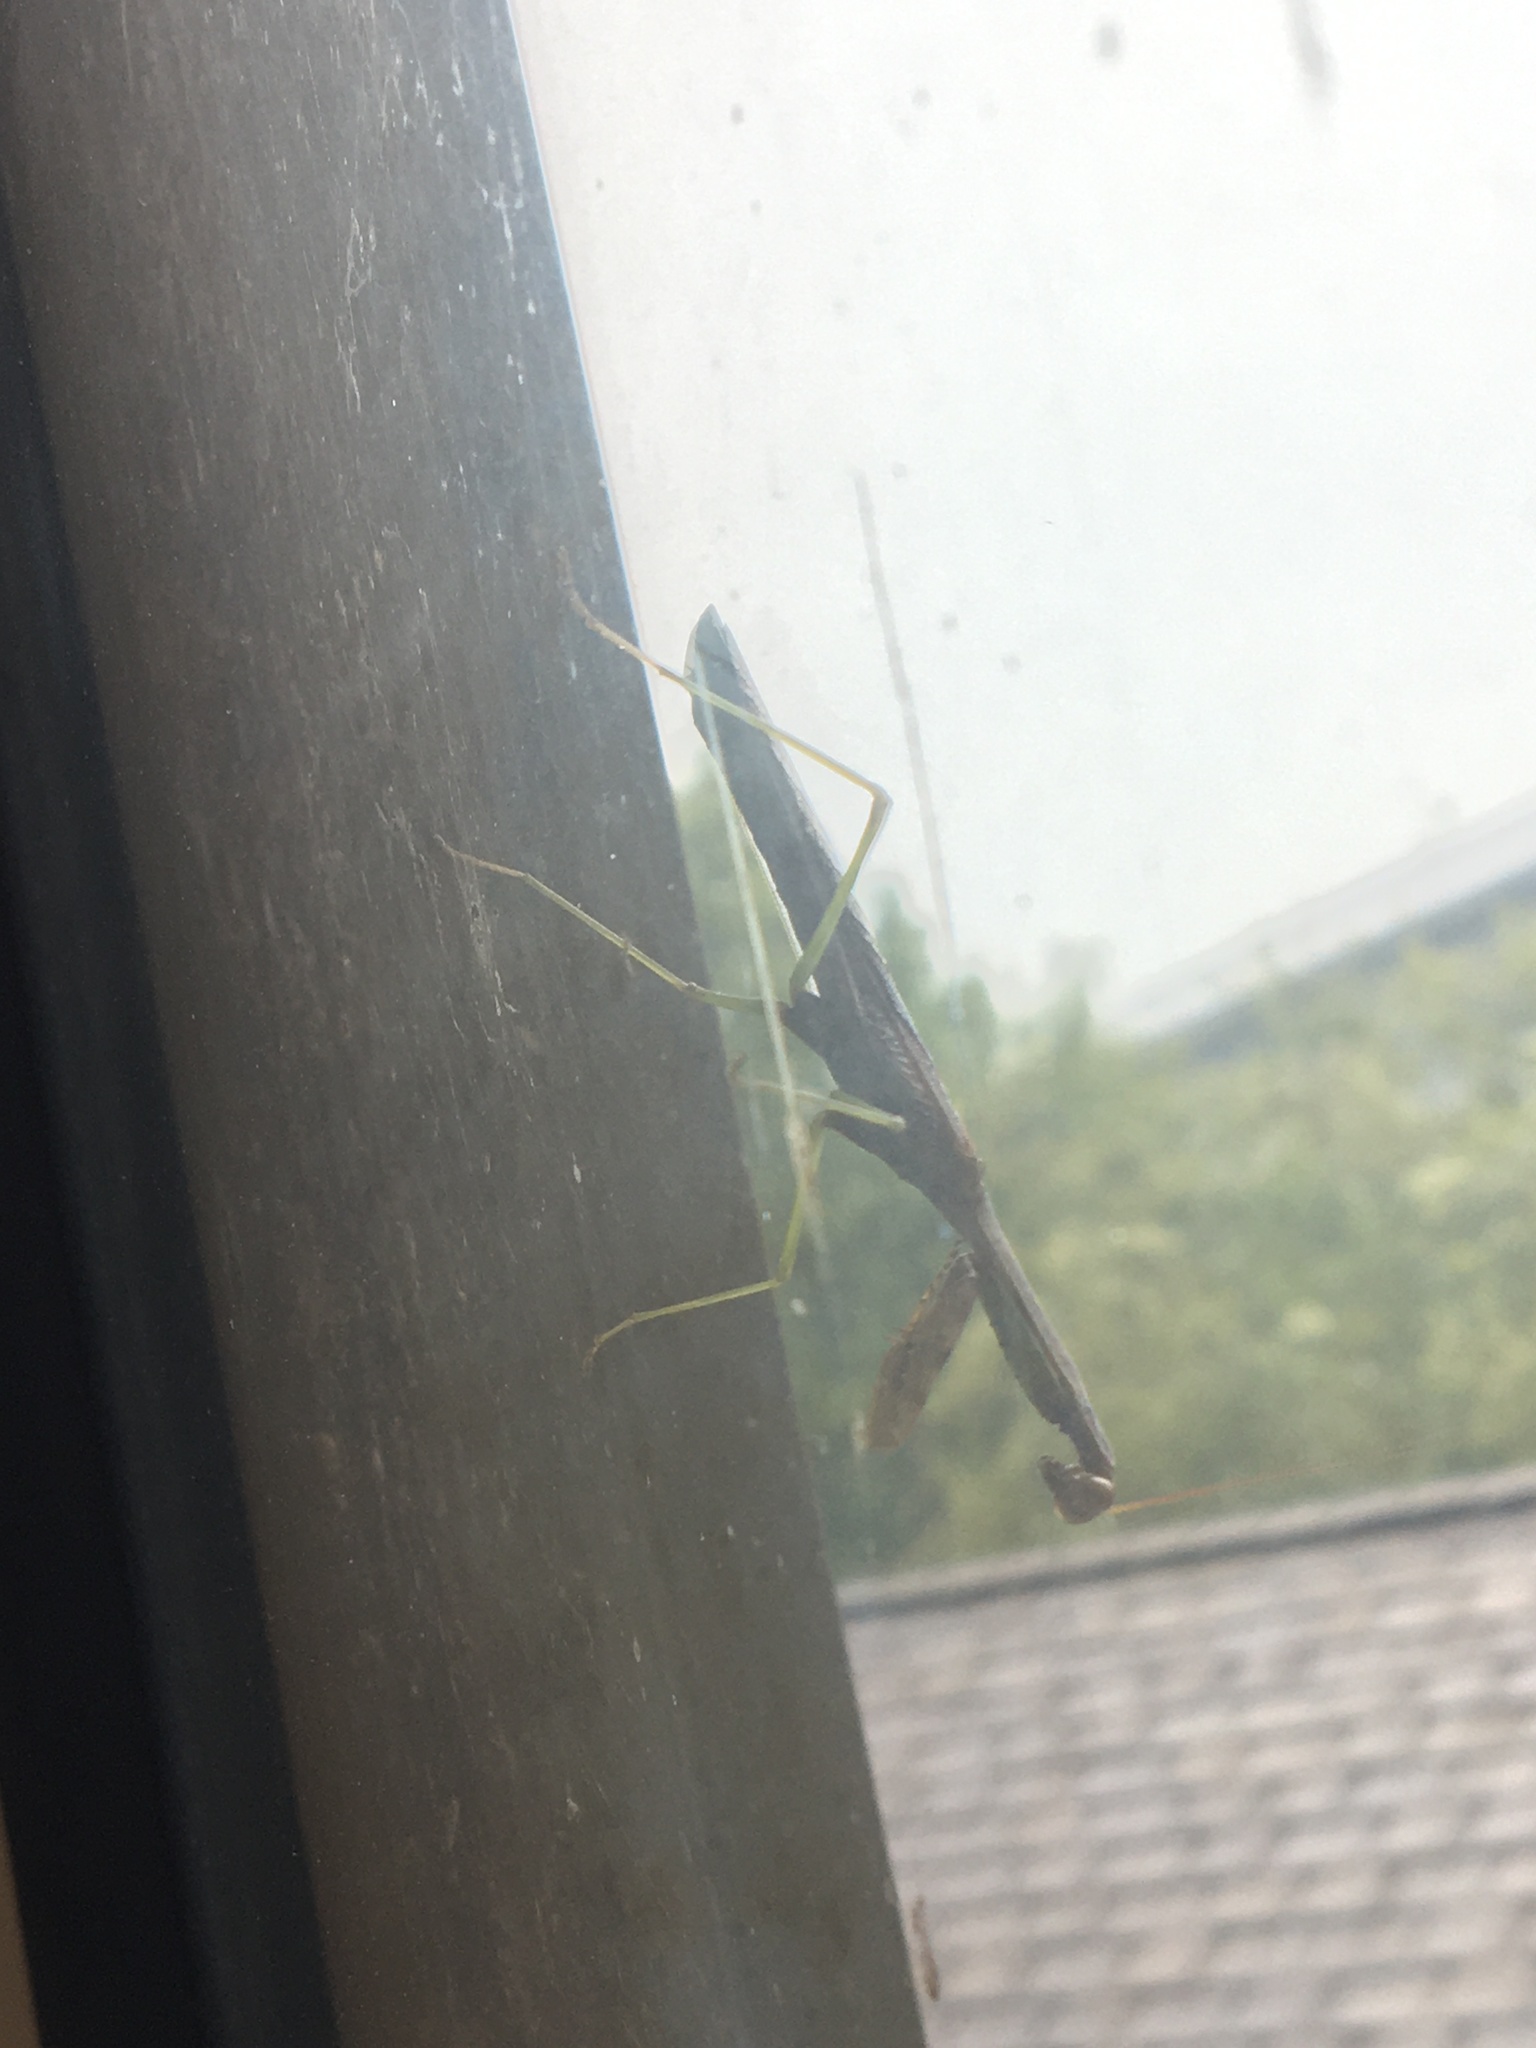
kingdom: Animalia
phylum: Arthropoda
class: Insecta
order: Mantodea
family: Mantidae
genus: Stagmomantis
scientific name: Stagmomantis carolina
